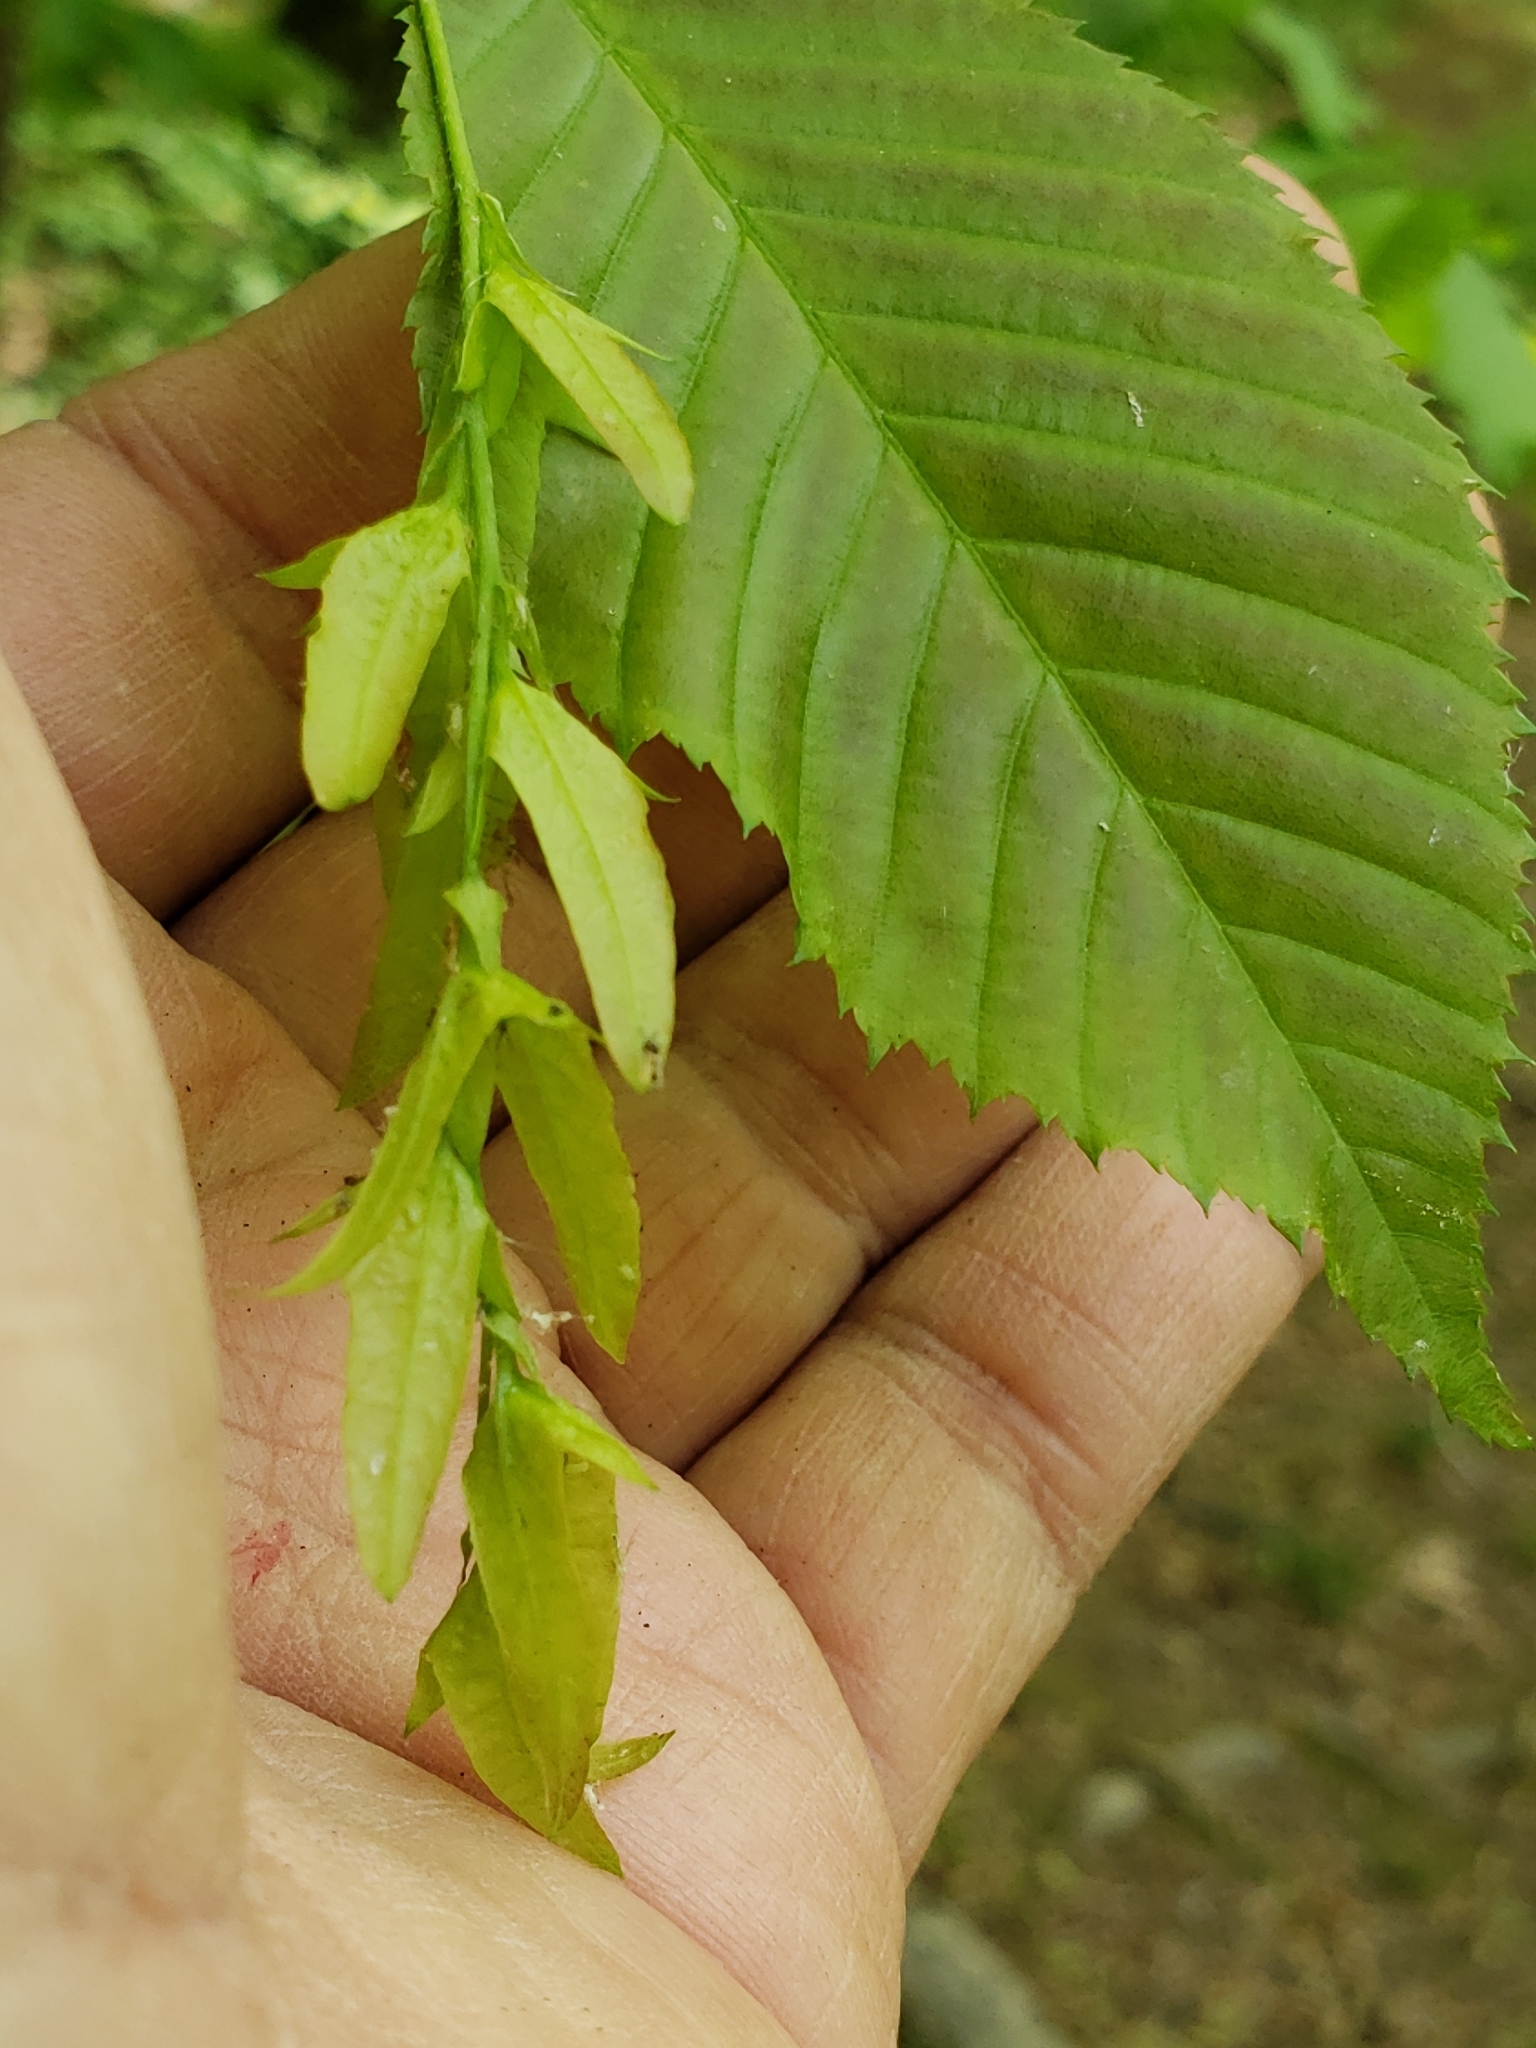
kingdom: Plantae
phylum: Tracheophyta
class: Magnoliopsida
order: Fagales
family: Betulaceae
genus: Carpinus
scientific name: Carpinus caroliniana
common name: American hornbeam
